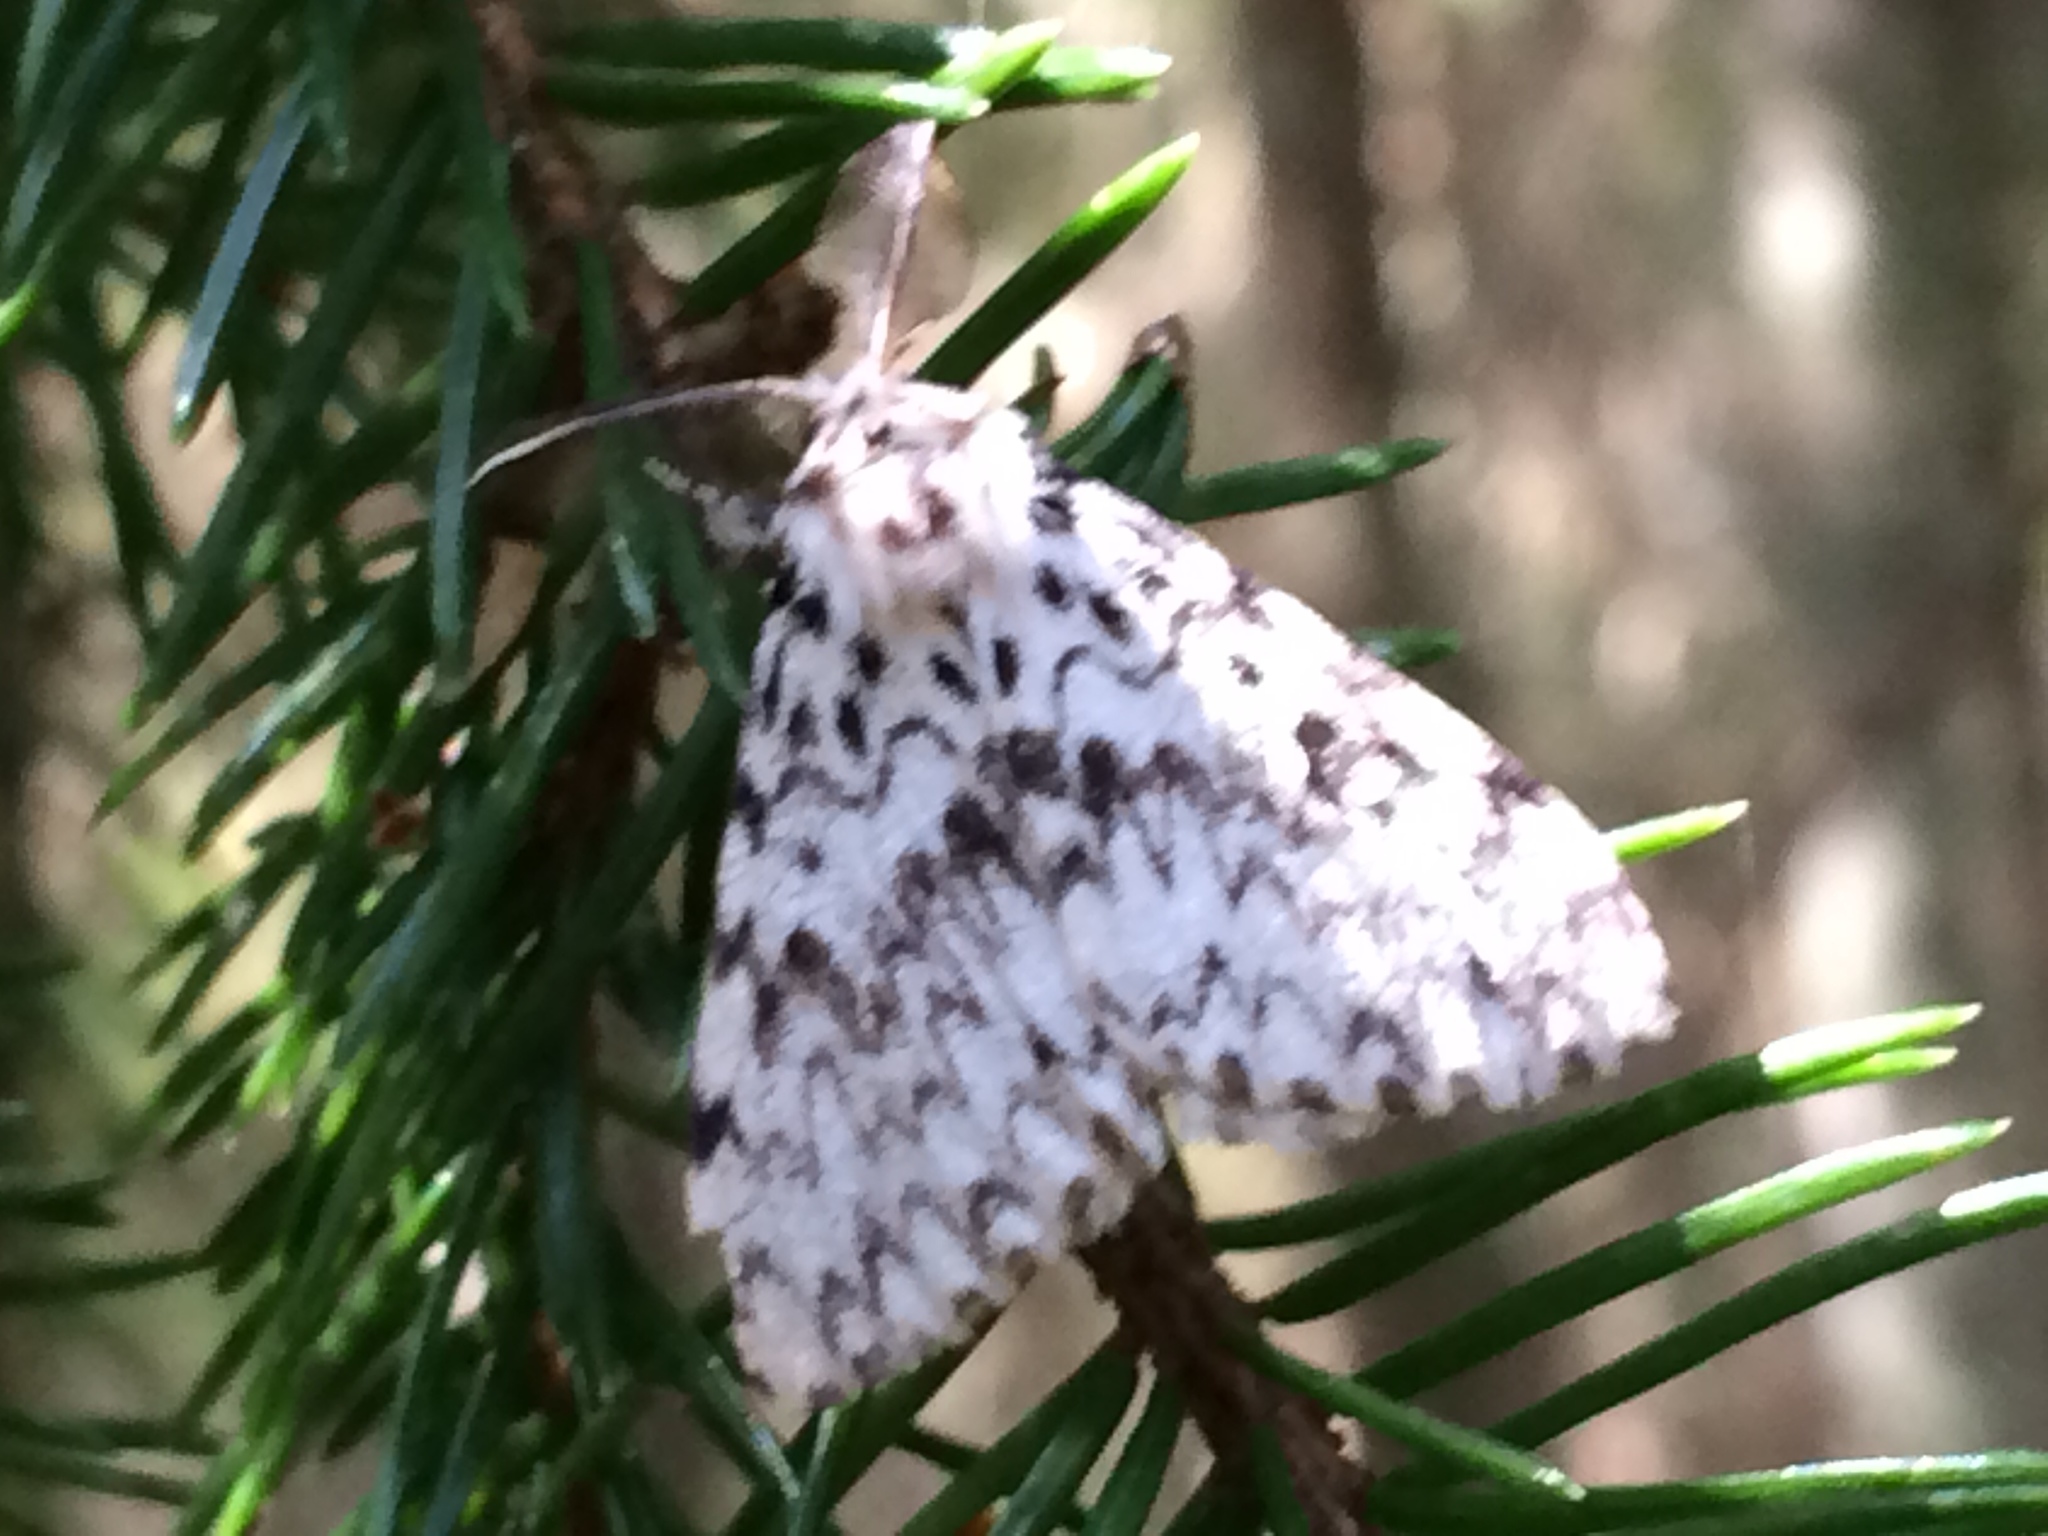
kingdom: Animalia
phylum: Arthropoda
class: Insecta
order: Lepidoptera
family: Erebidae
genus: Lymantria
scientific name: Lymantria monacha
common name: Black arches
